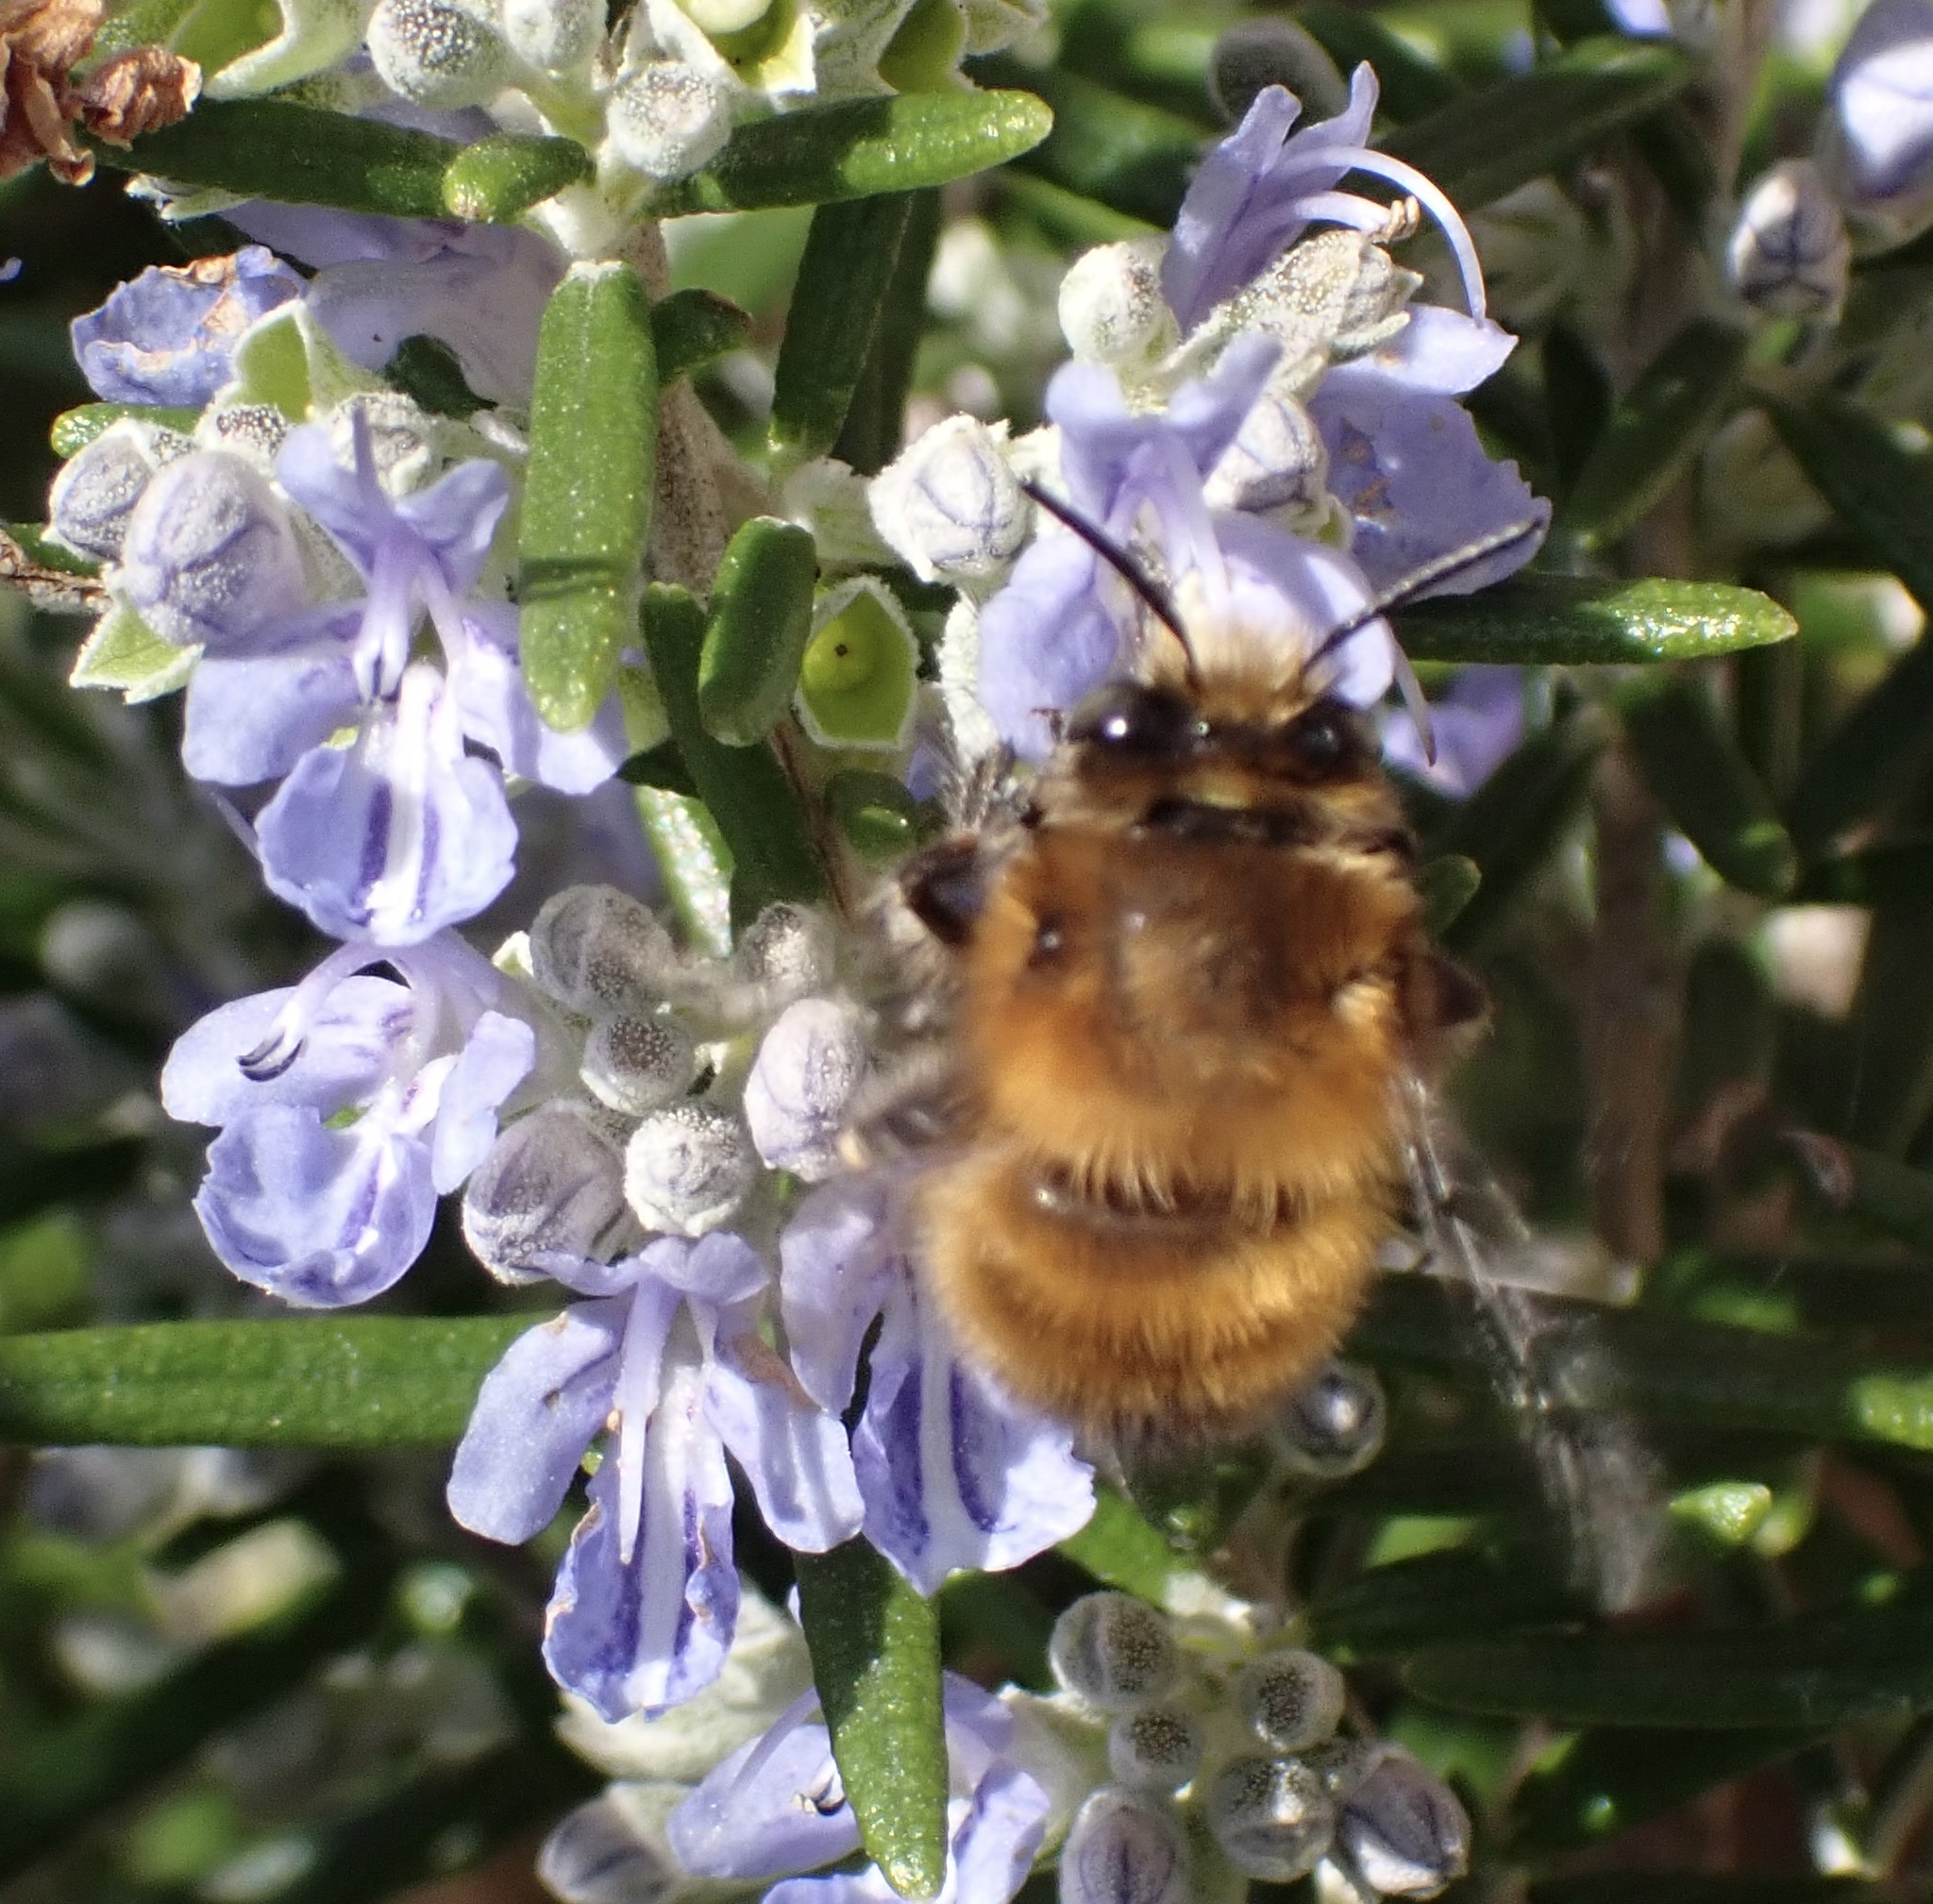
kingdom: Animalia
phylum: Arthropoda
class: Insecta
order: Hymenoptera
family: Apidae
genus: Anthophora
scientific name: Anthophora plumipes
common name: Hairy-footed flower bee
